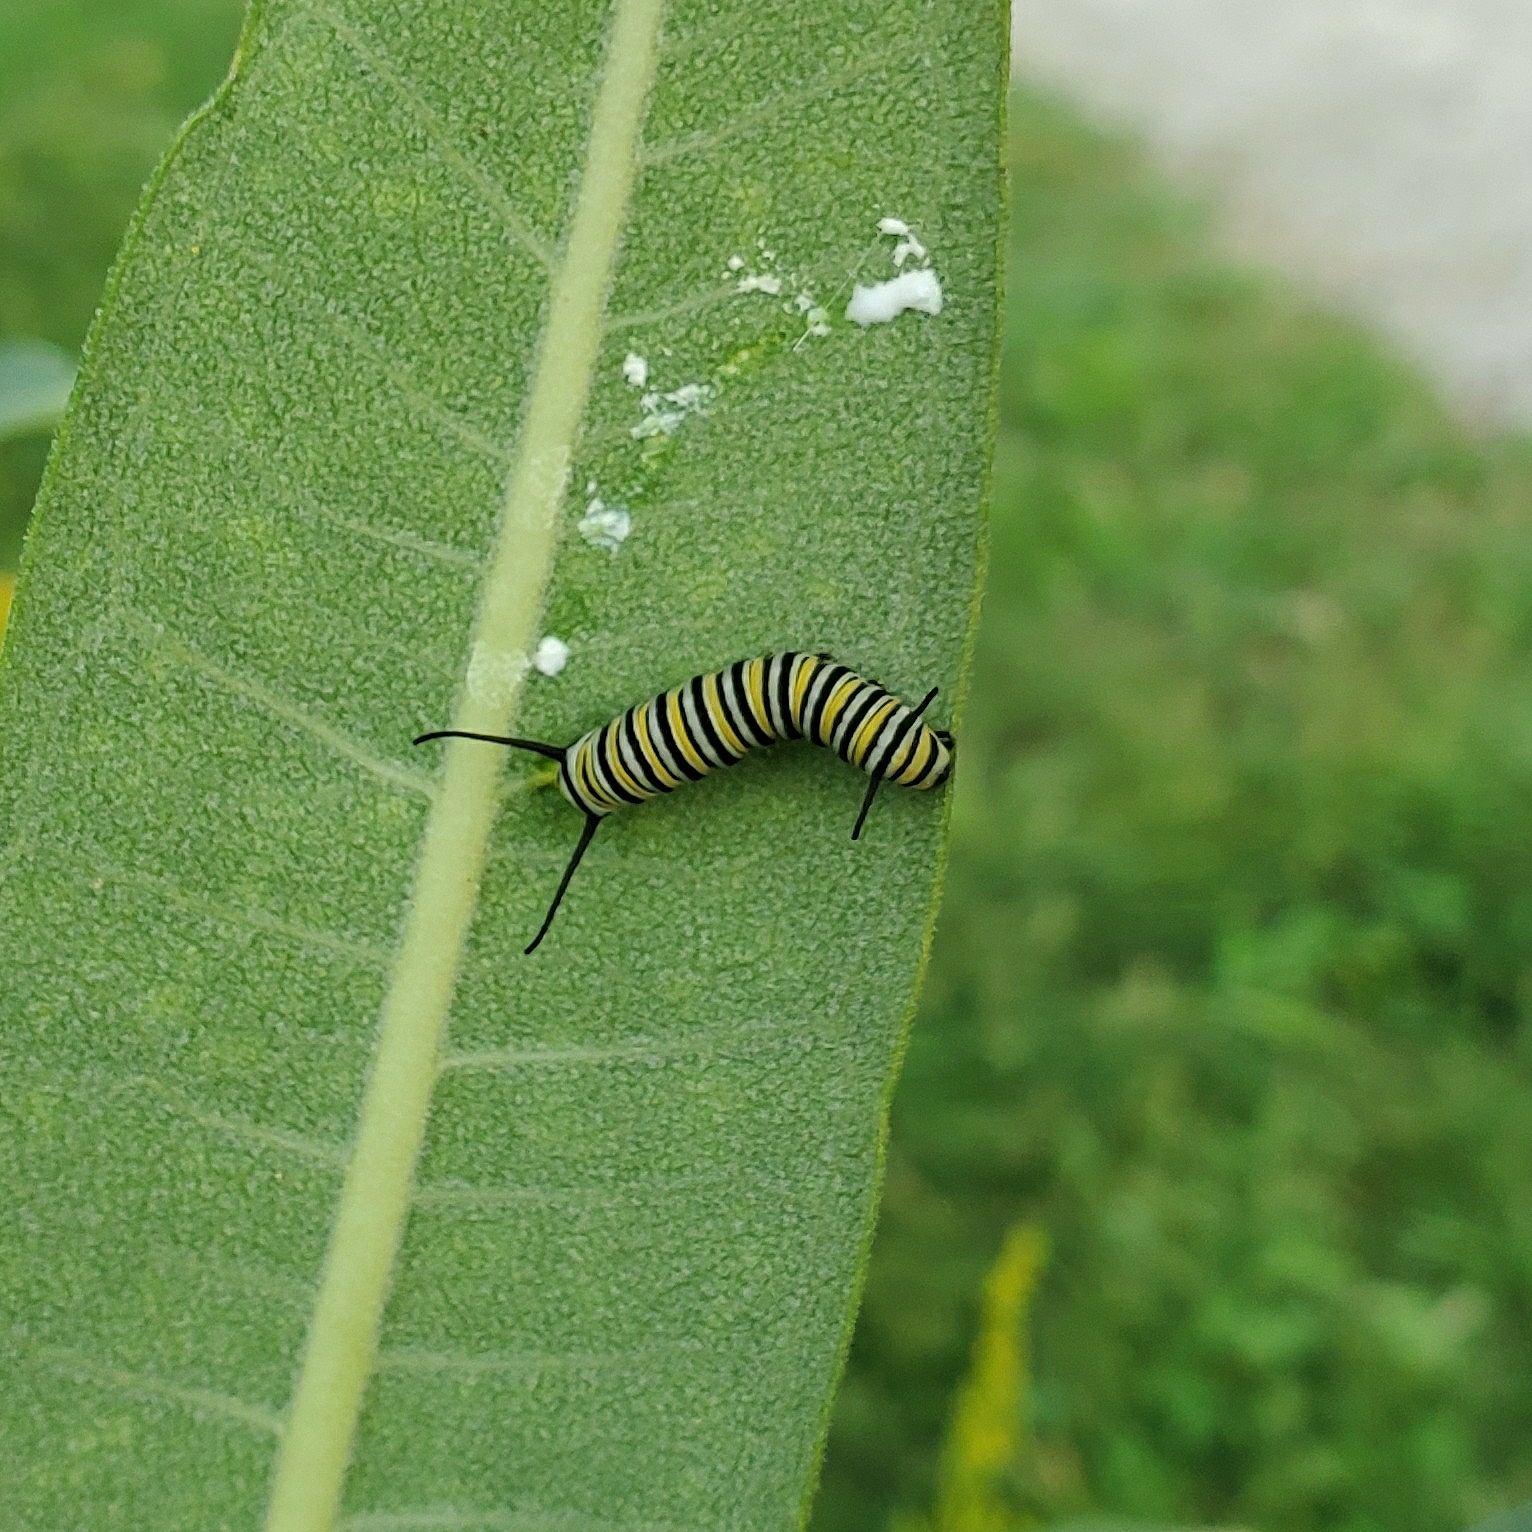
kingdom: Animalia
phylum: Arthropoda
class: Insecta
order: Lepidoptera
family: Nymphalidae
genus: Danaus
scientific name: Danaus plexippus
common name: Monarch
